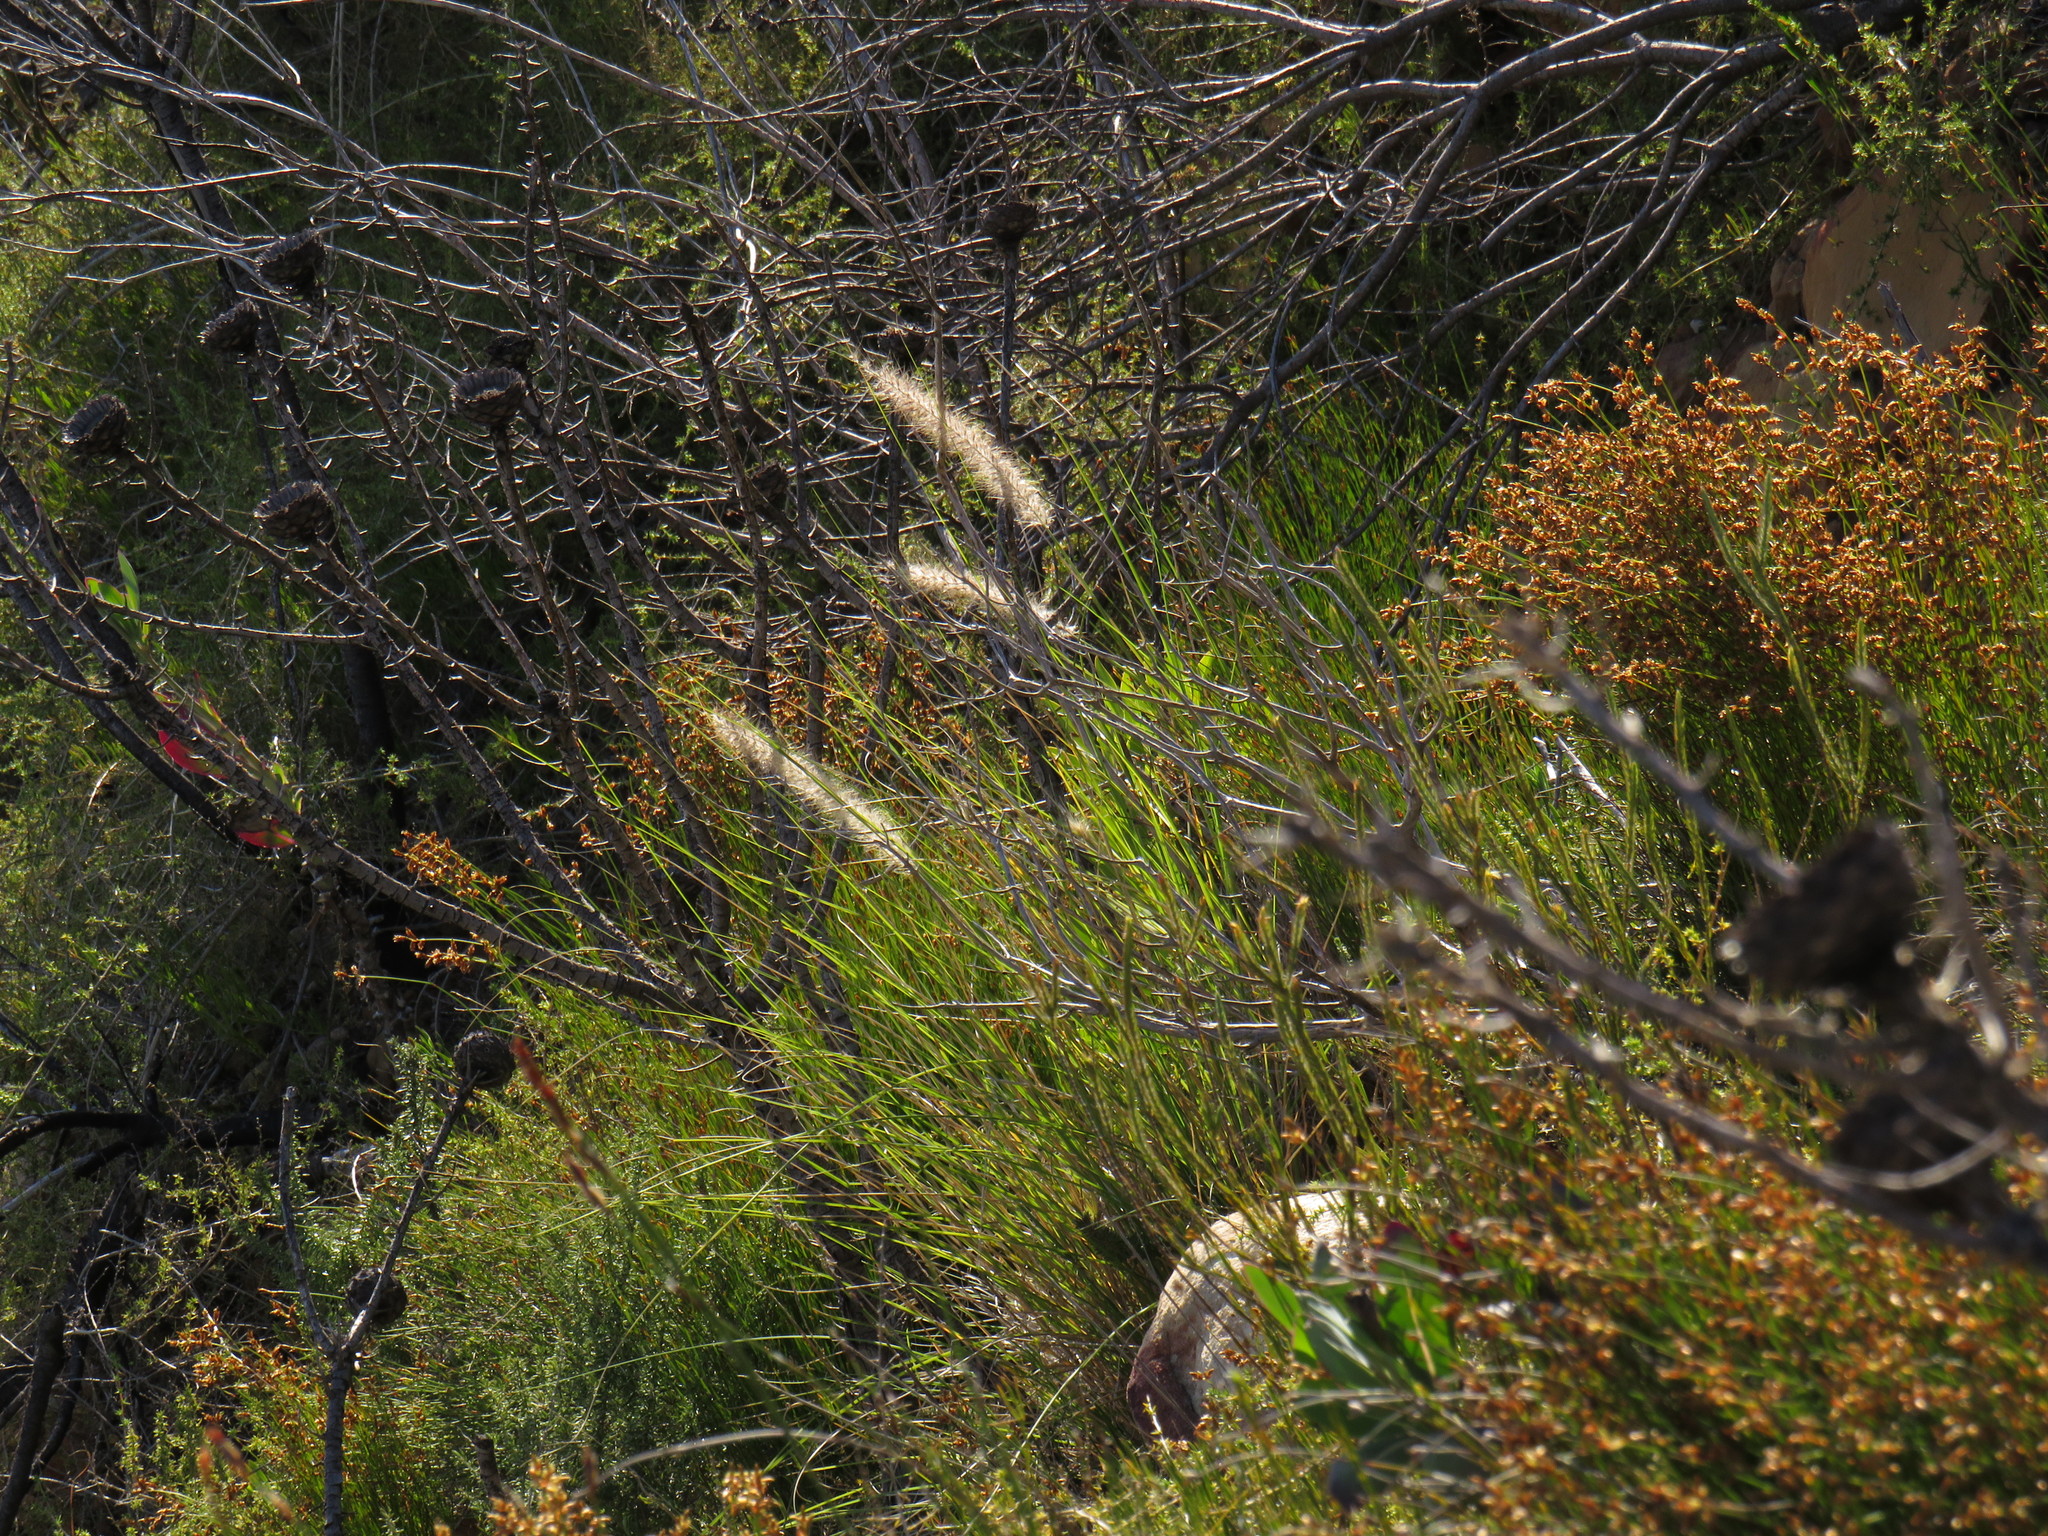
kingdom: Plantae
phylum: Tracheophyta
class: Liliopsida
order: Poales
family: Poaceae
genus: Cenchrus
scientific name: Cenchrus setaceus
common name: Crimson fountaingrass
